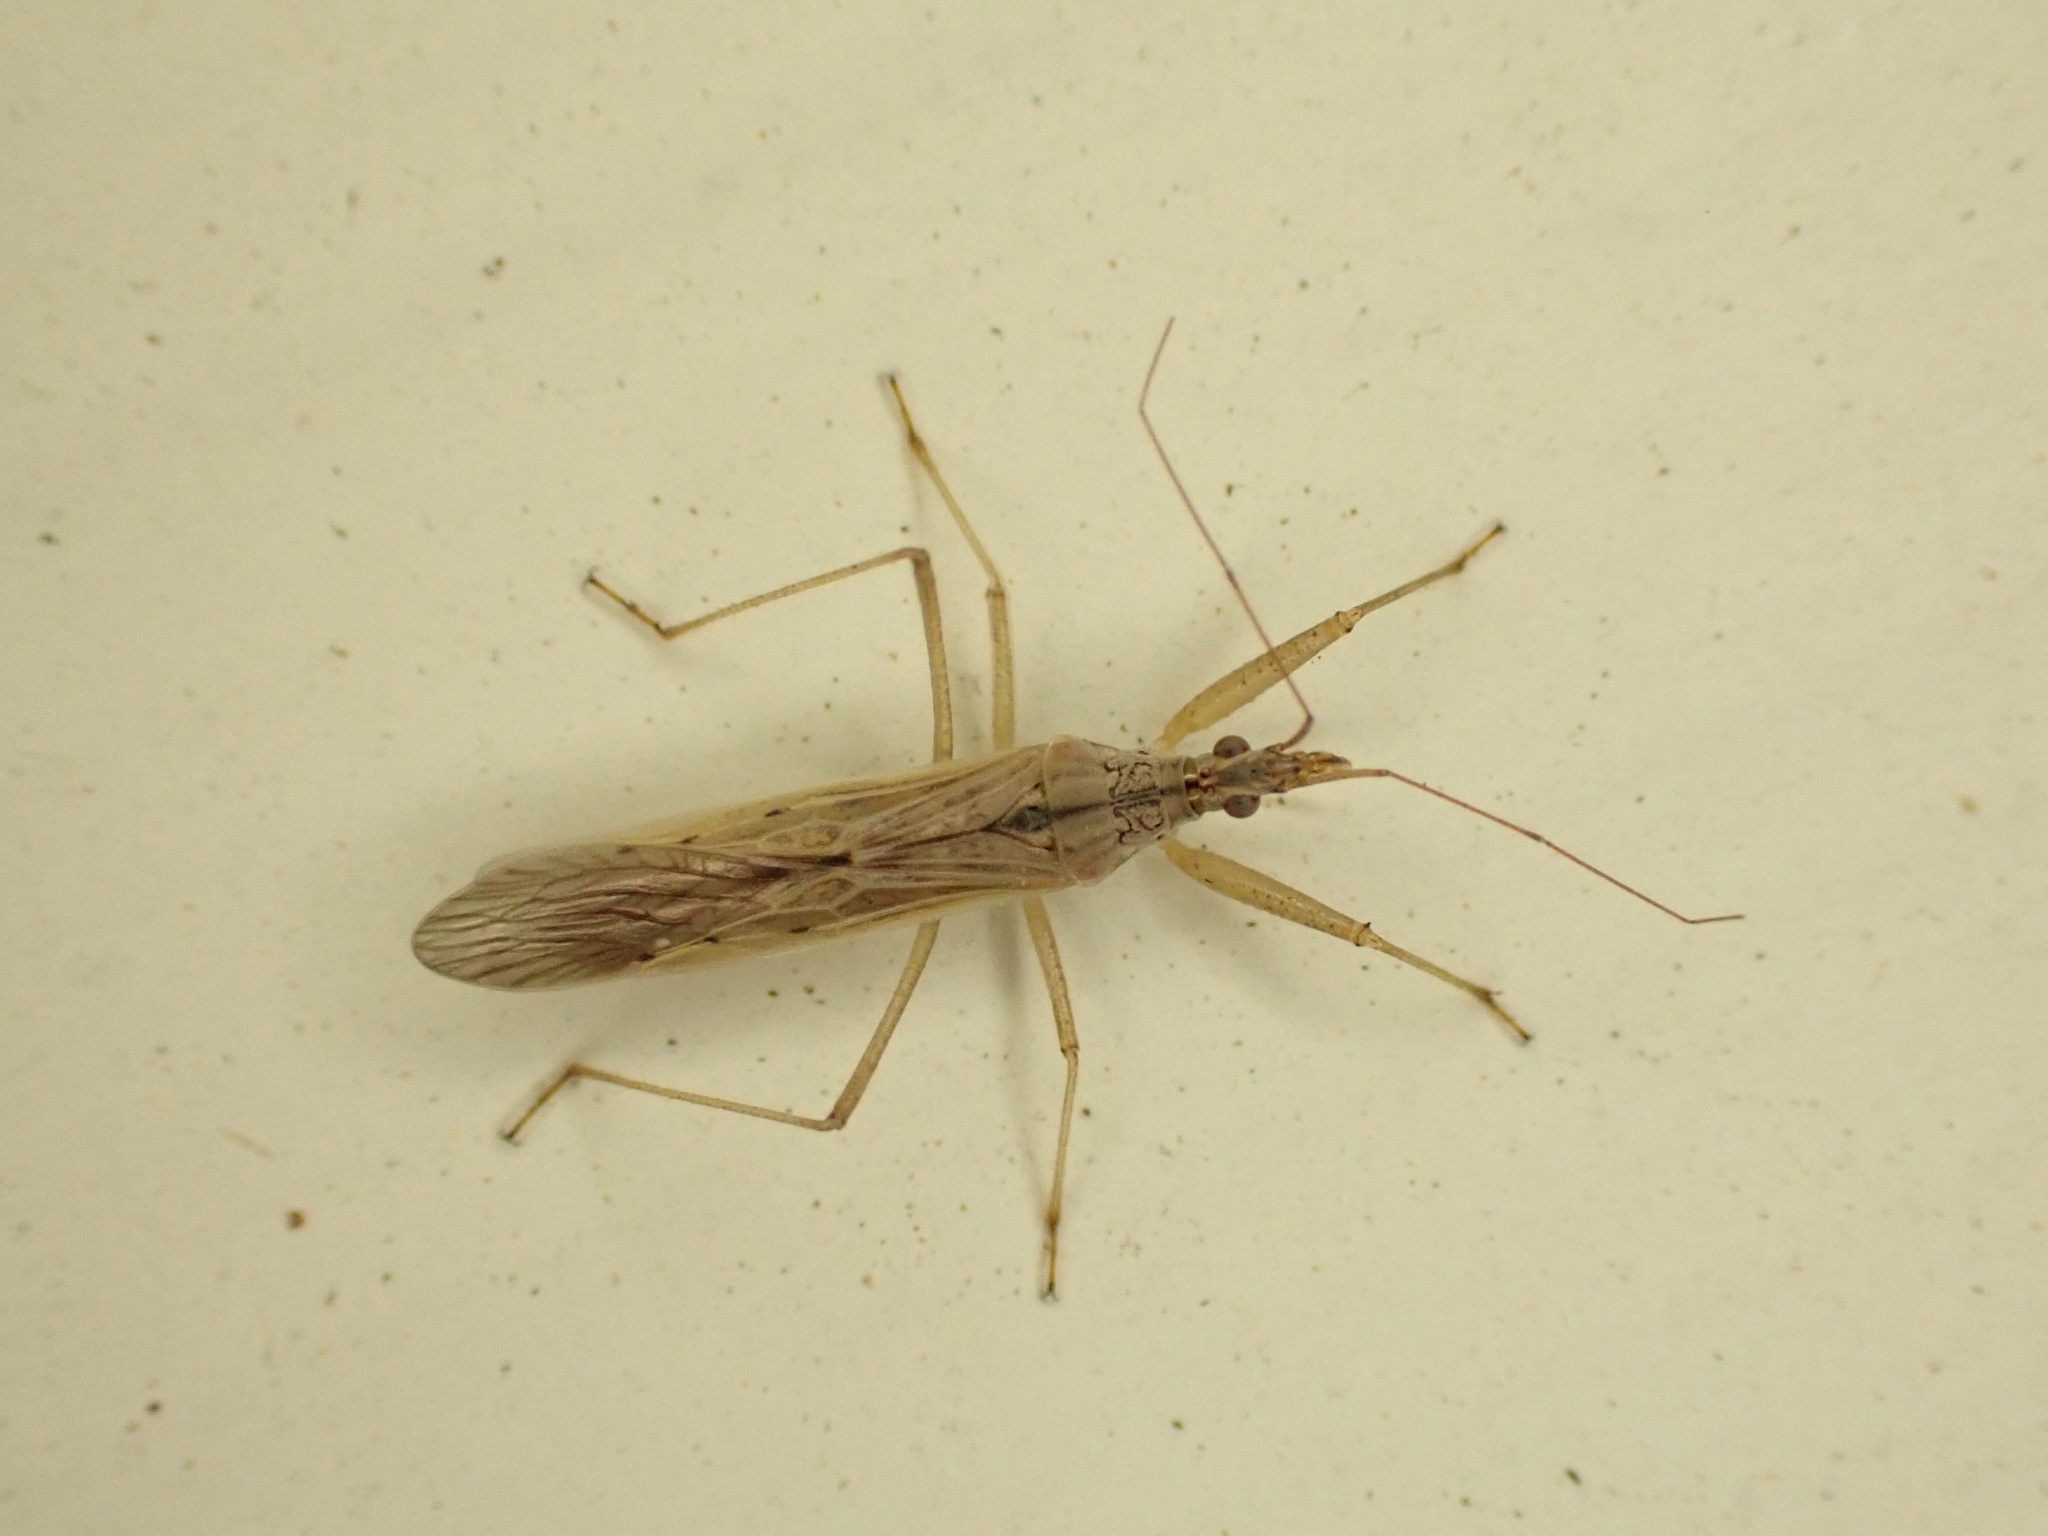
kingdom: Animalia
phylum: Arthropoda
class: Insecta
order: Hemiptera
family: Nabidae
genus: Nabis
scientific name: Nabis kinbergii
